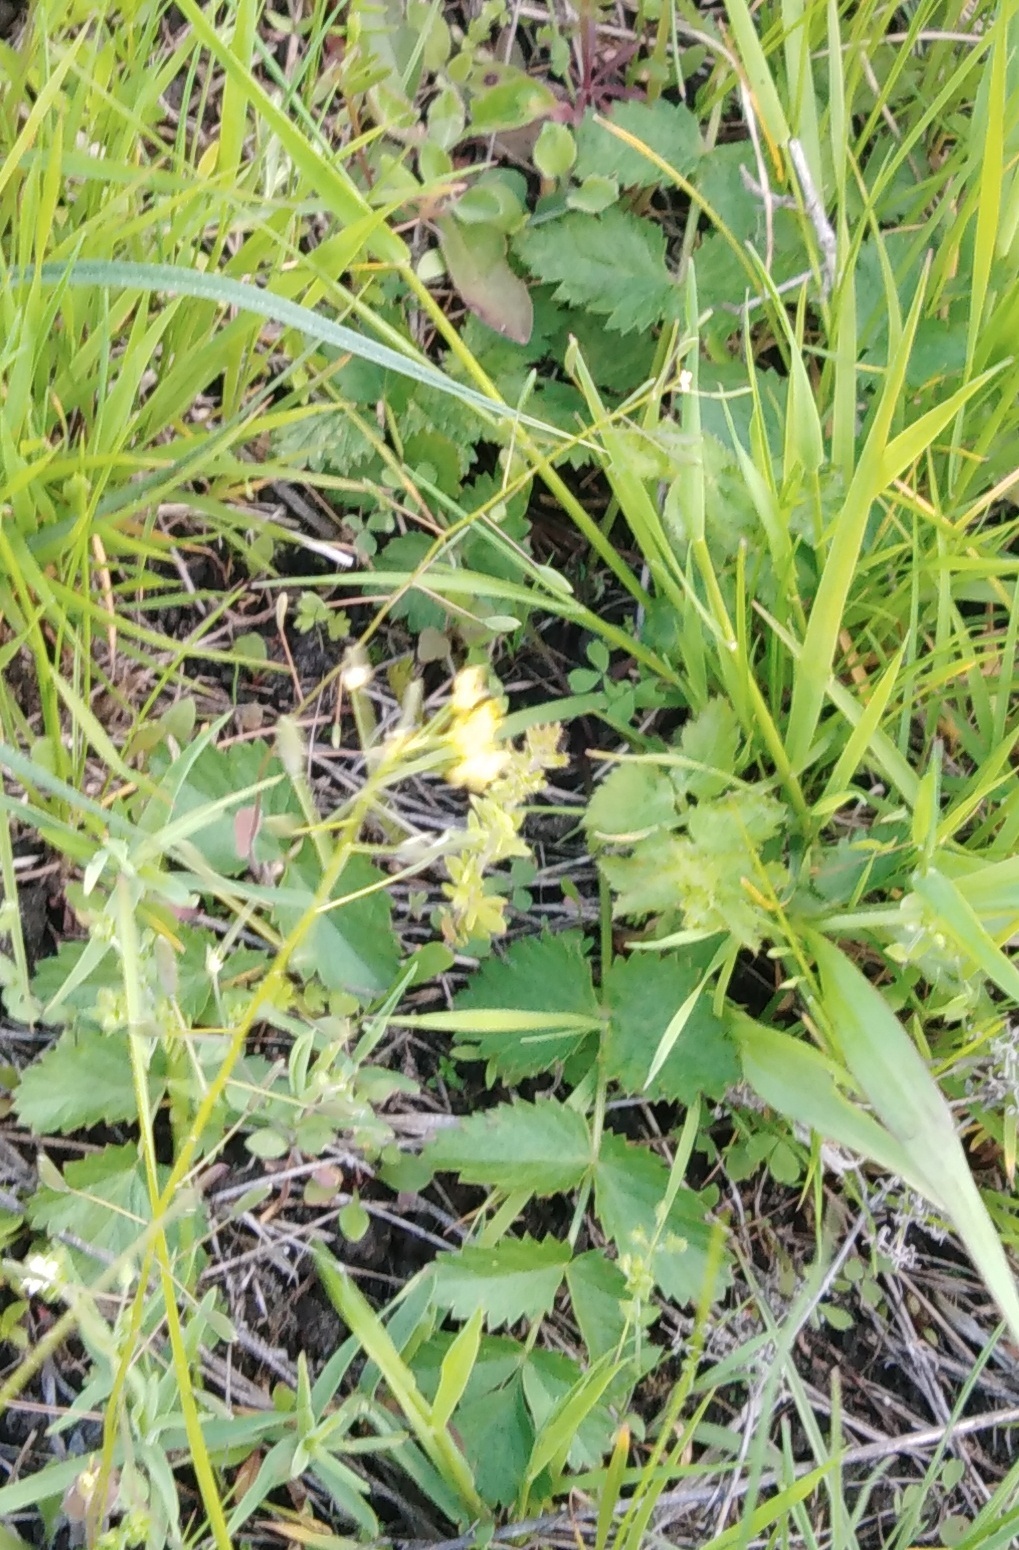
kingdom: Plantae
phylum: Tracheophyta
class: Magnoliopsida
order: Apiales
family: Apiaceae
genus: Pimpinella
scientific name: Pimpinella saxifraga
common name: Burnet-saxifrage
